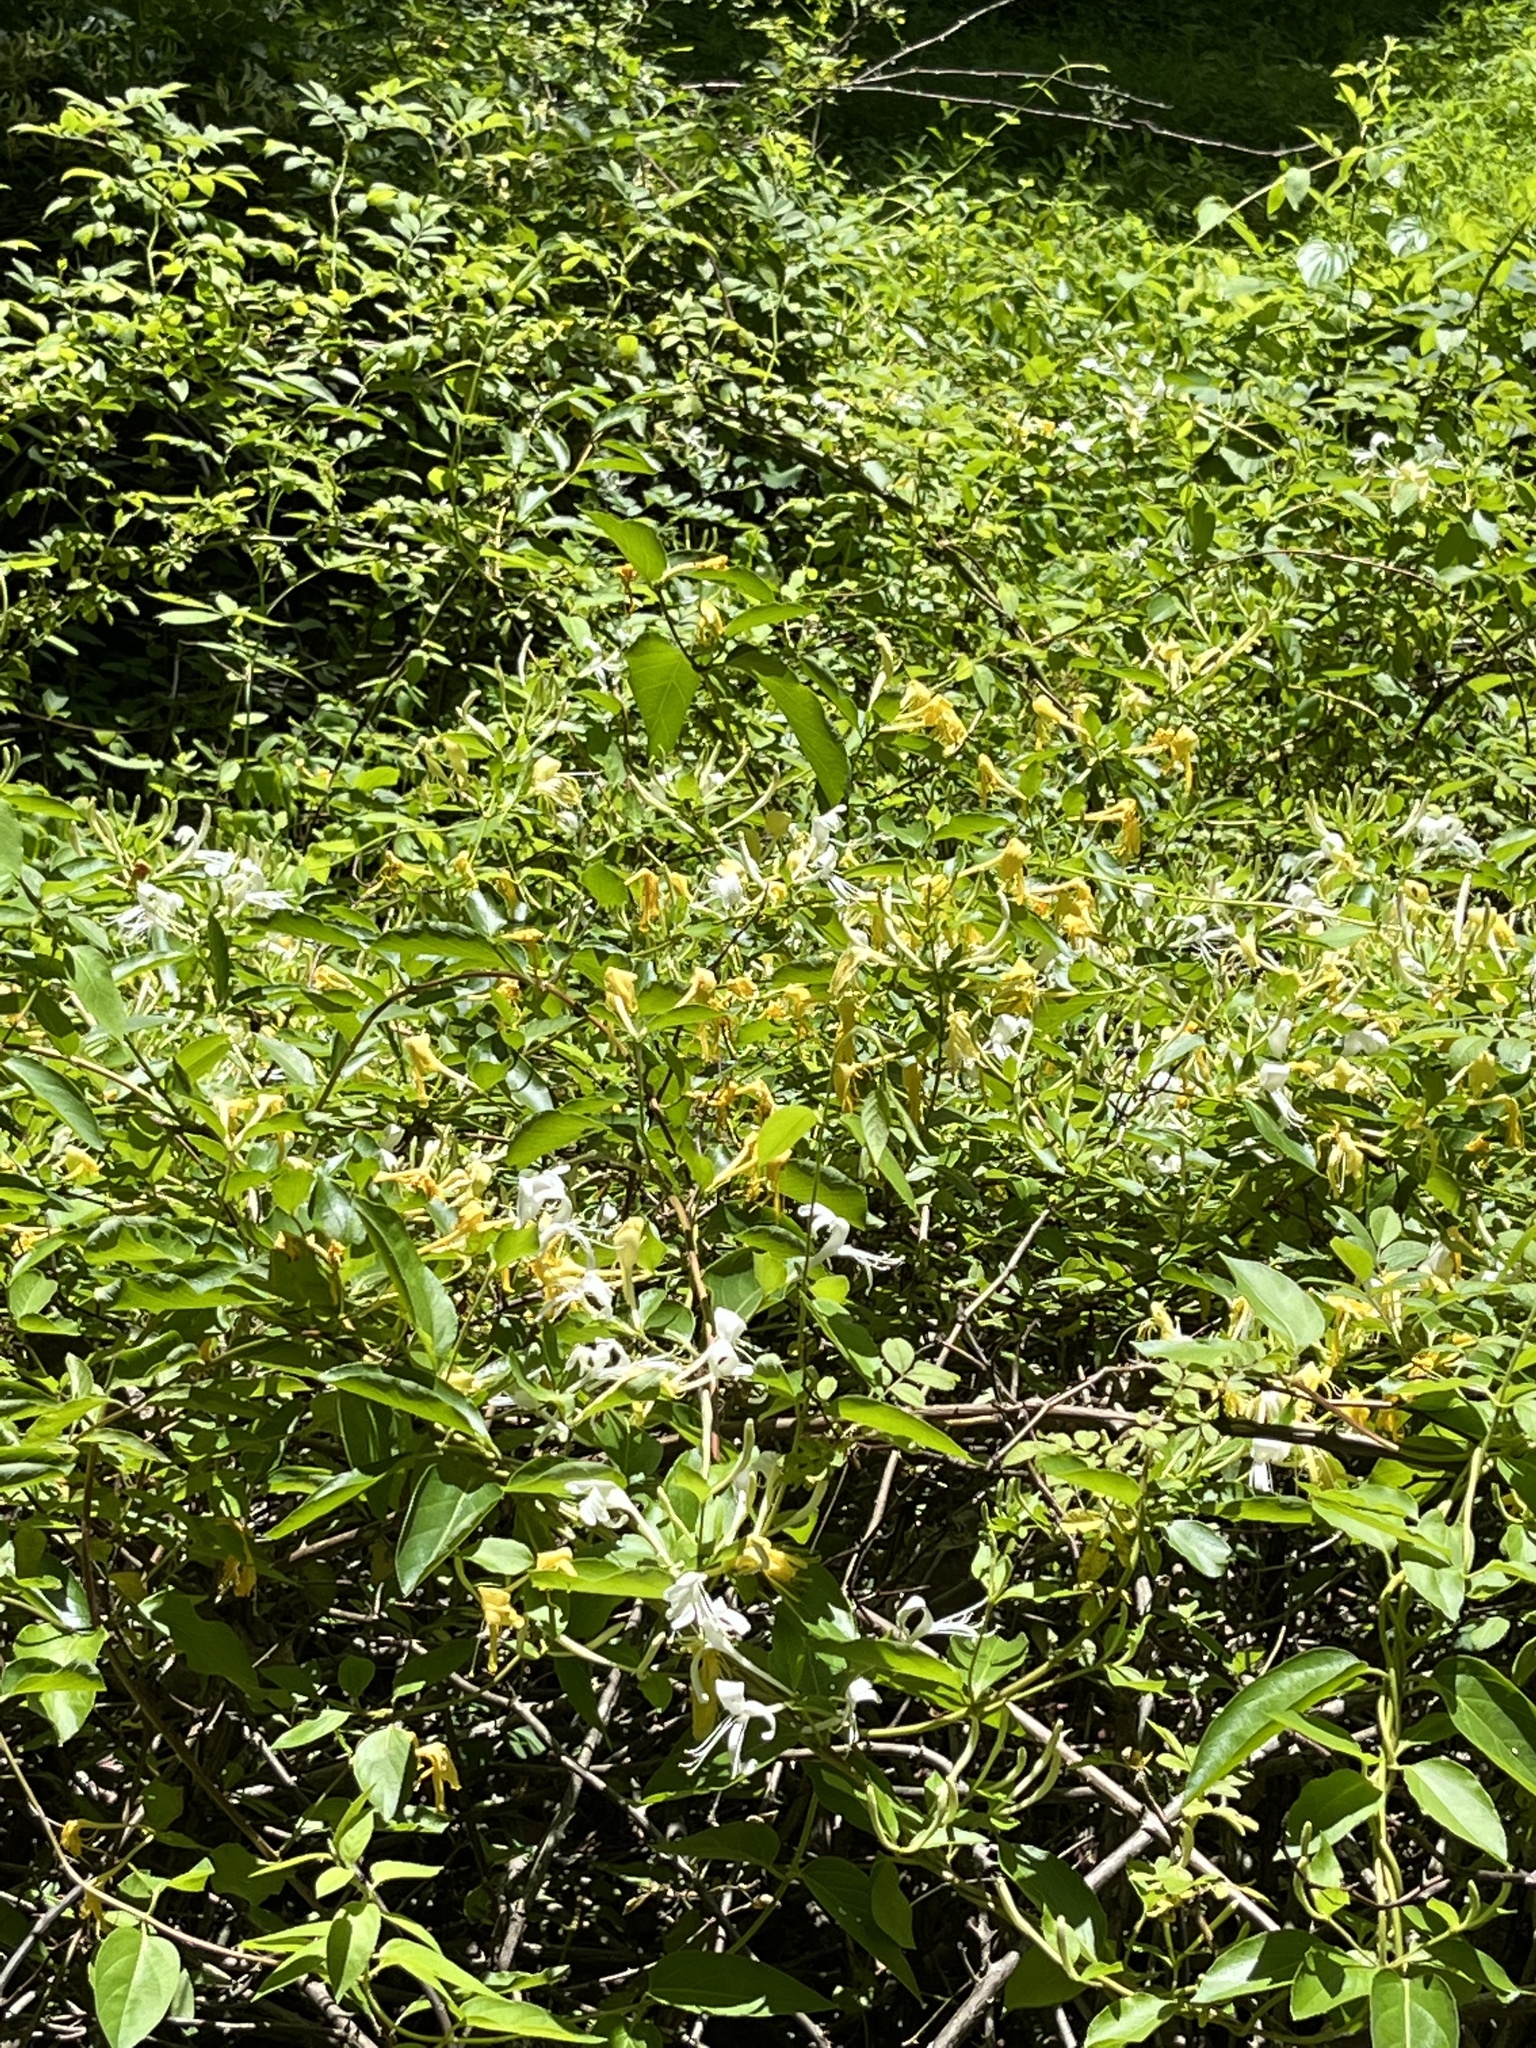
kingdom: Plantae
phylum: Tracheophyta
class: Magnoliopsida
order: Dipsacales
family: Caprifoliaceae
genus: Lonicera
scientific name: Lonicera japonica
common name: Japanese honeysuckle
